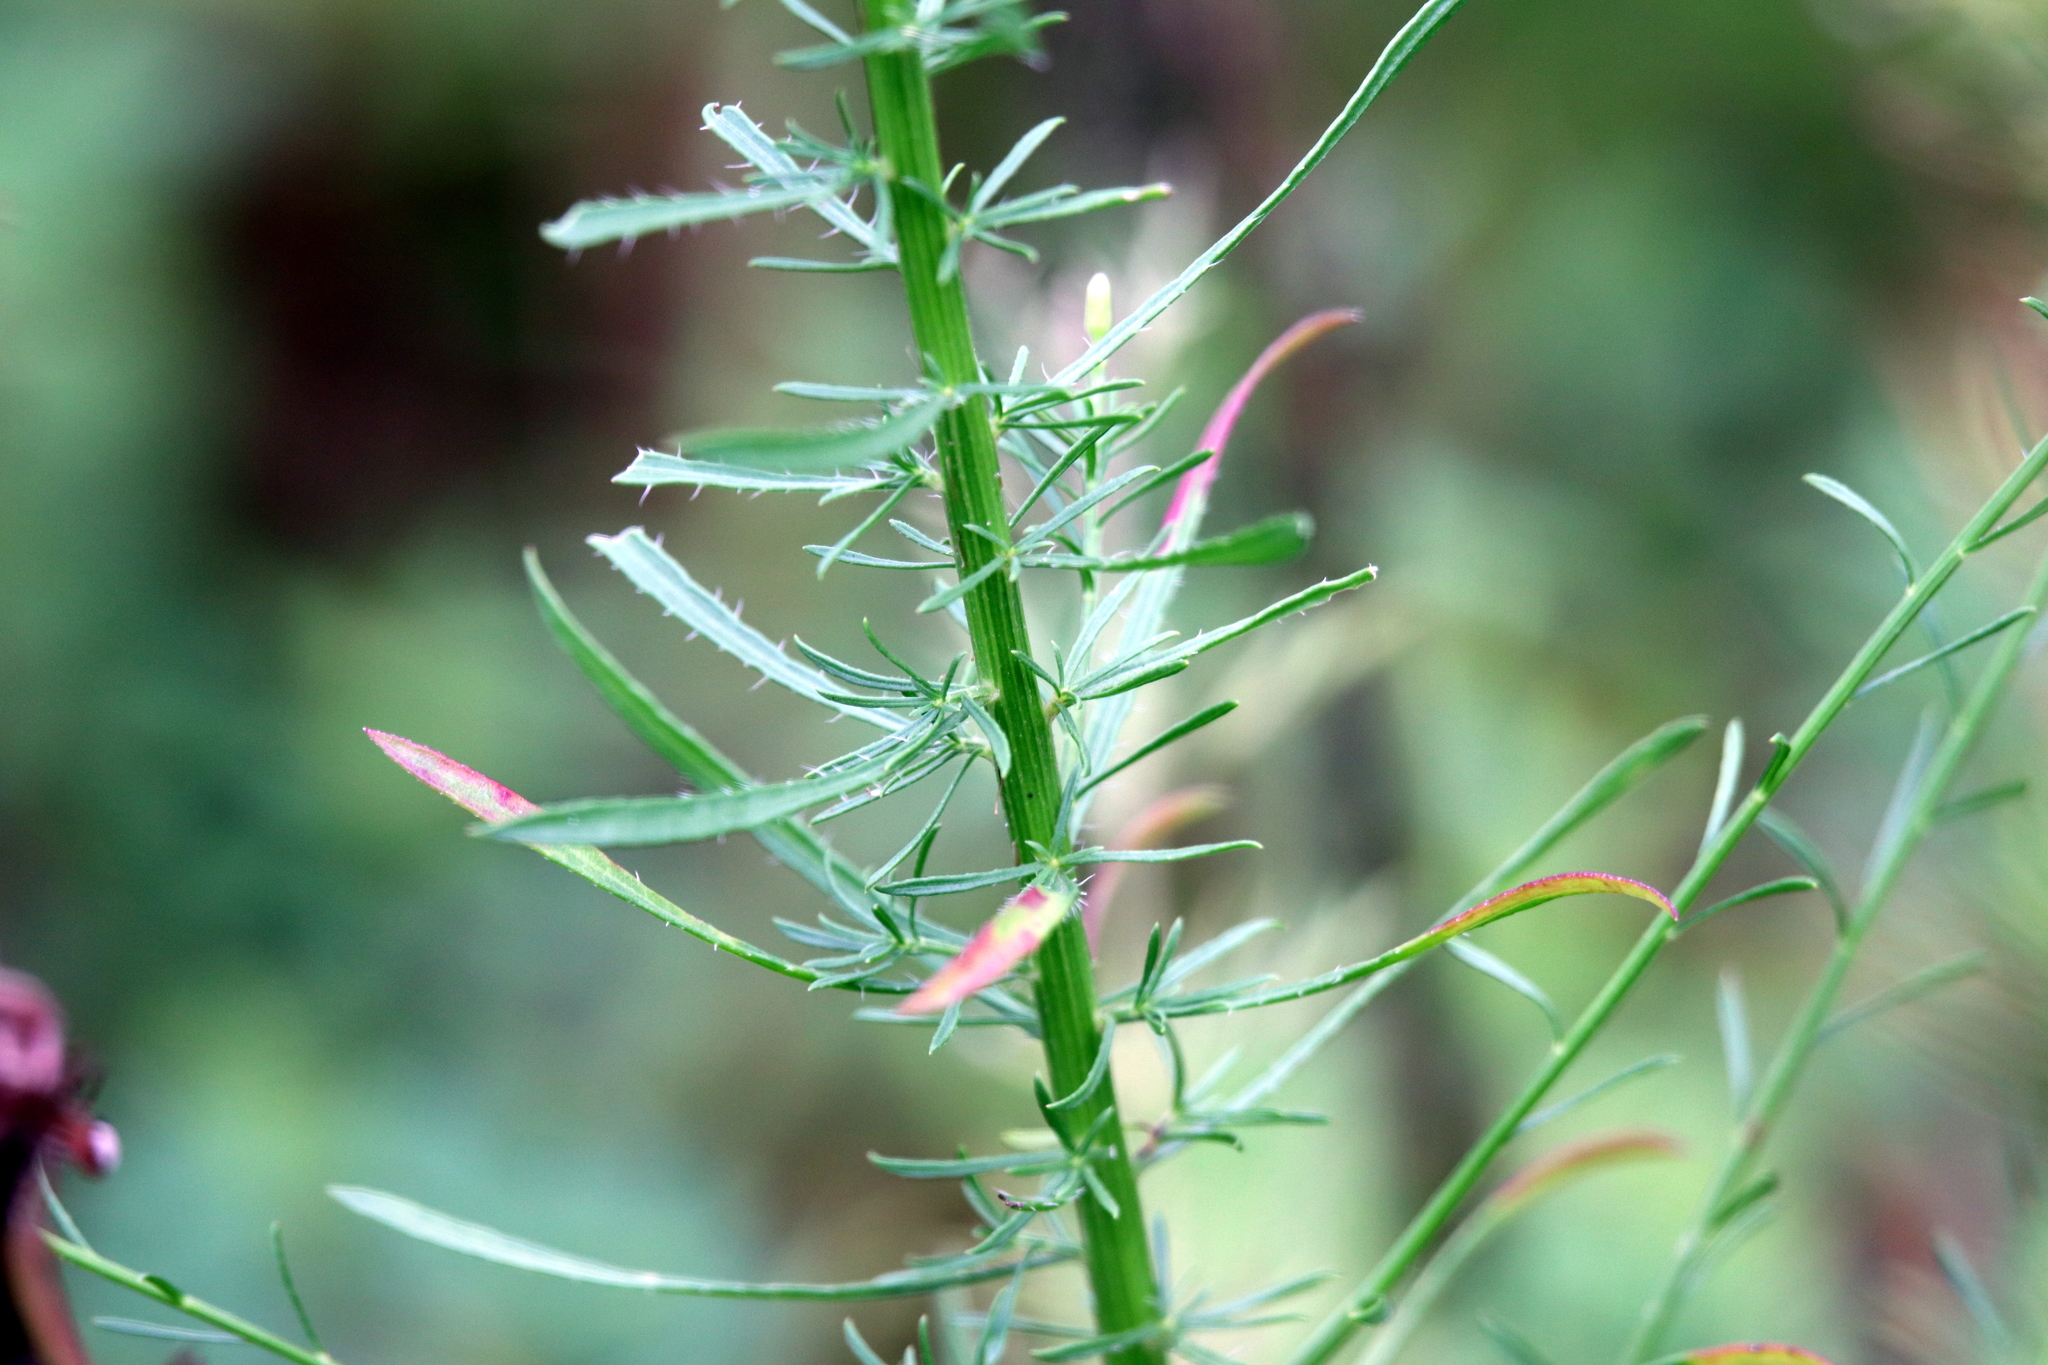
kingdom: Plantae
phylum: Tracheophyta
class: Magnoliopsida
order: Asterales
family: Asteraceae
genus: Erigeron
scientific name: Erigeron canadensis
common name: Canadian fleabane
